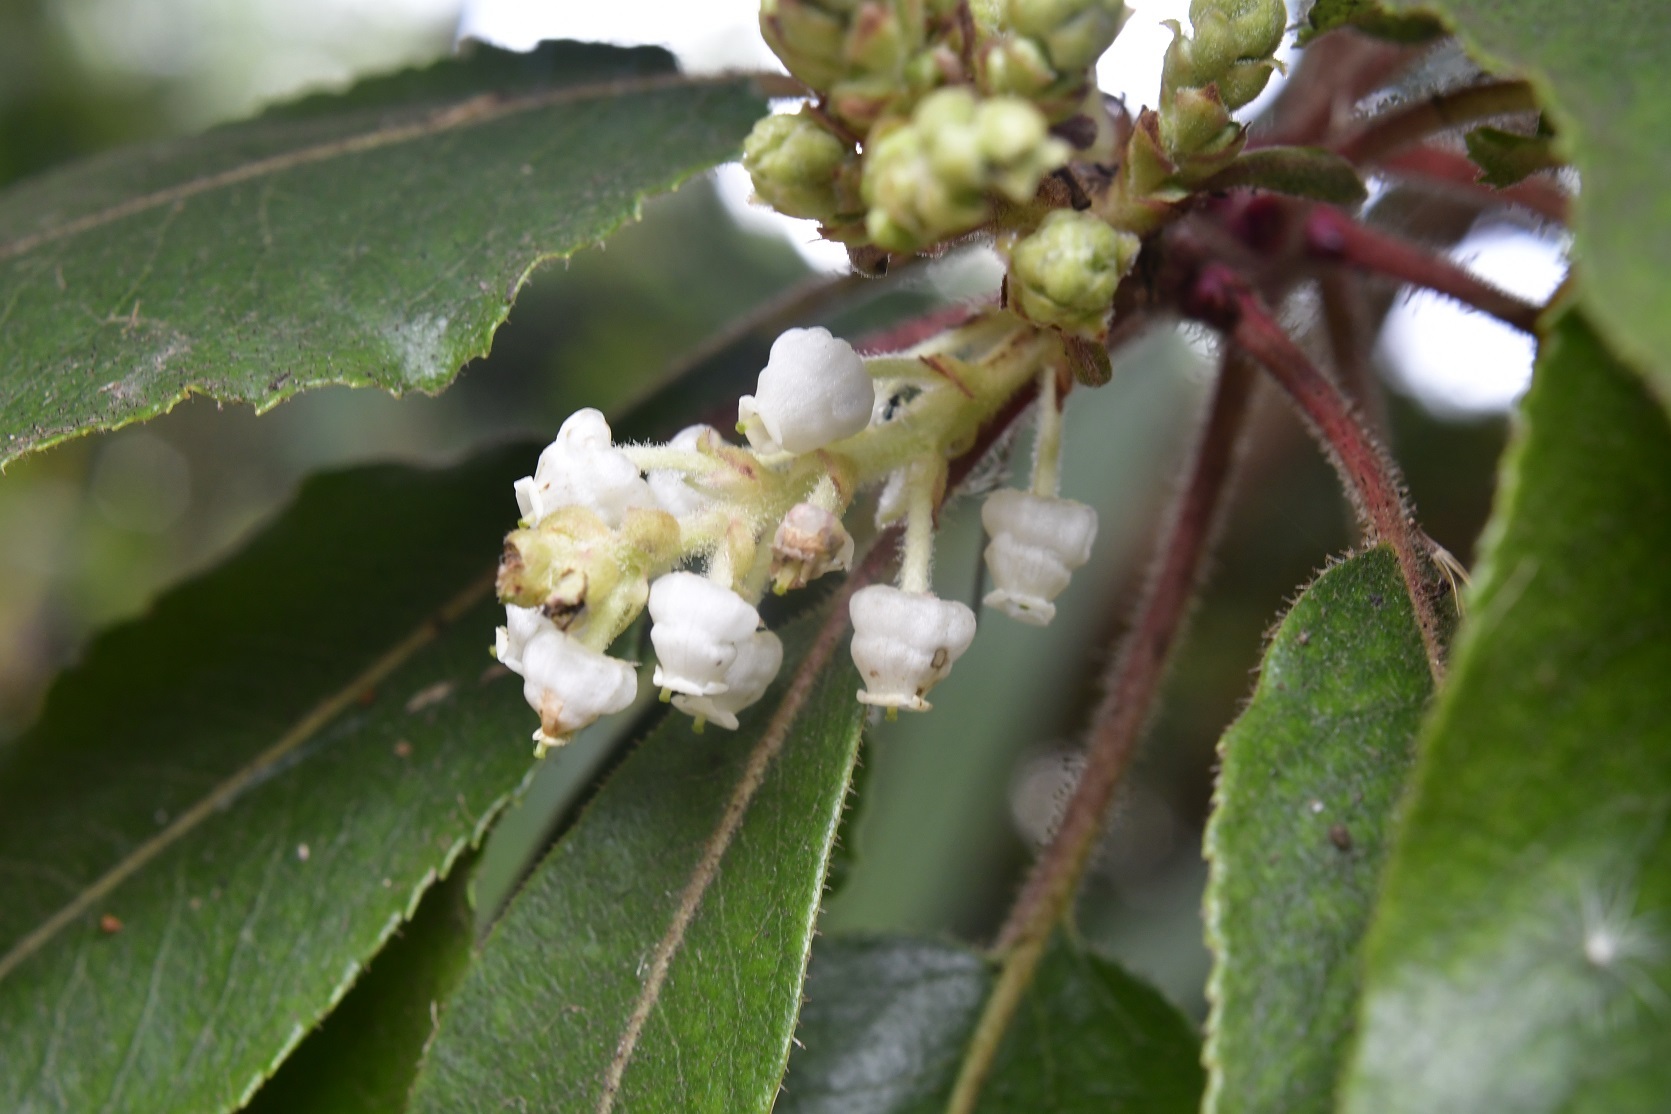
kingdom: Plantae
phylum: Tracheophyta
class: Magnoliopsida
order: Ericales
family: Ericaceae
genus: Arbutus
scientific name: Arbutus xalapensis
